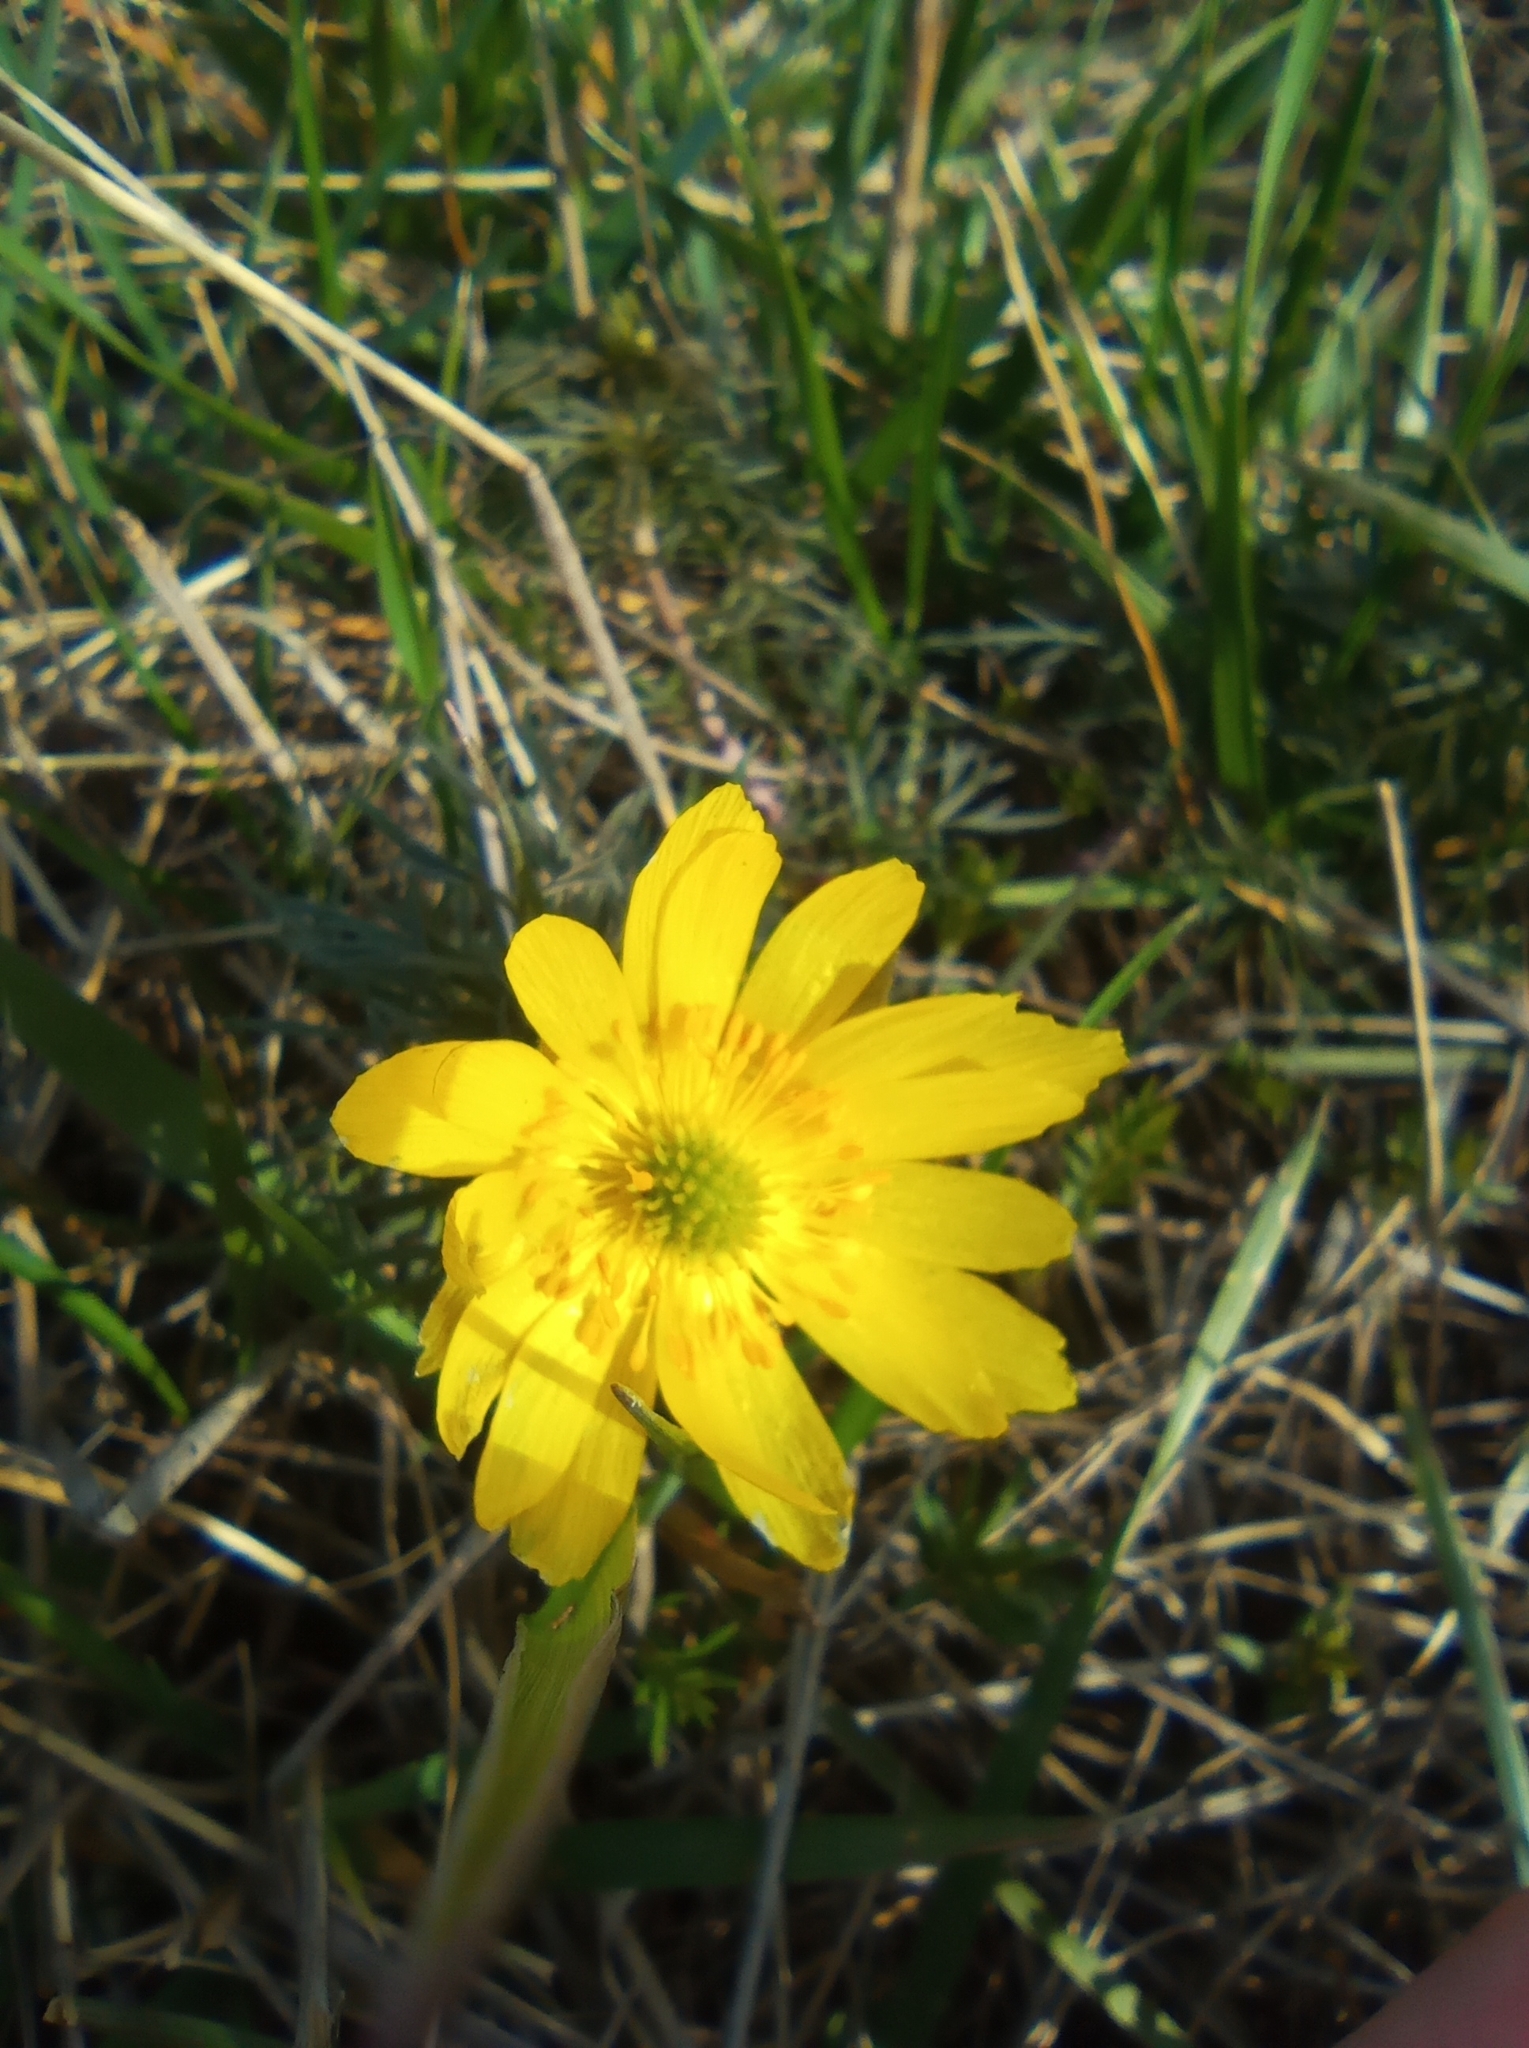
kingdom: Plantae
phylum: Tracheophyta
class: Magnoliopsida
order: Ranunculales
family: Ranunculaceae
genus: Adonis
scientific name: Adonis volgensis
